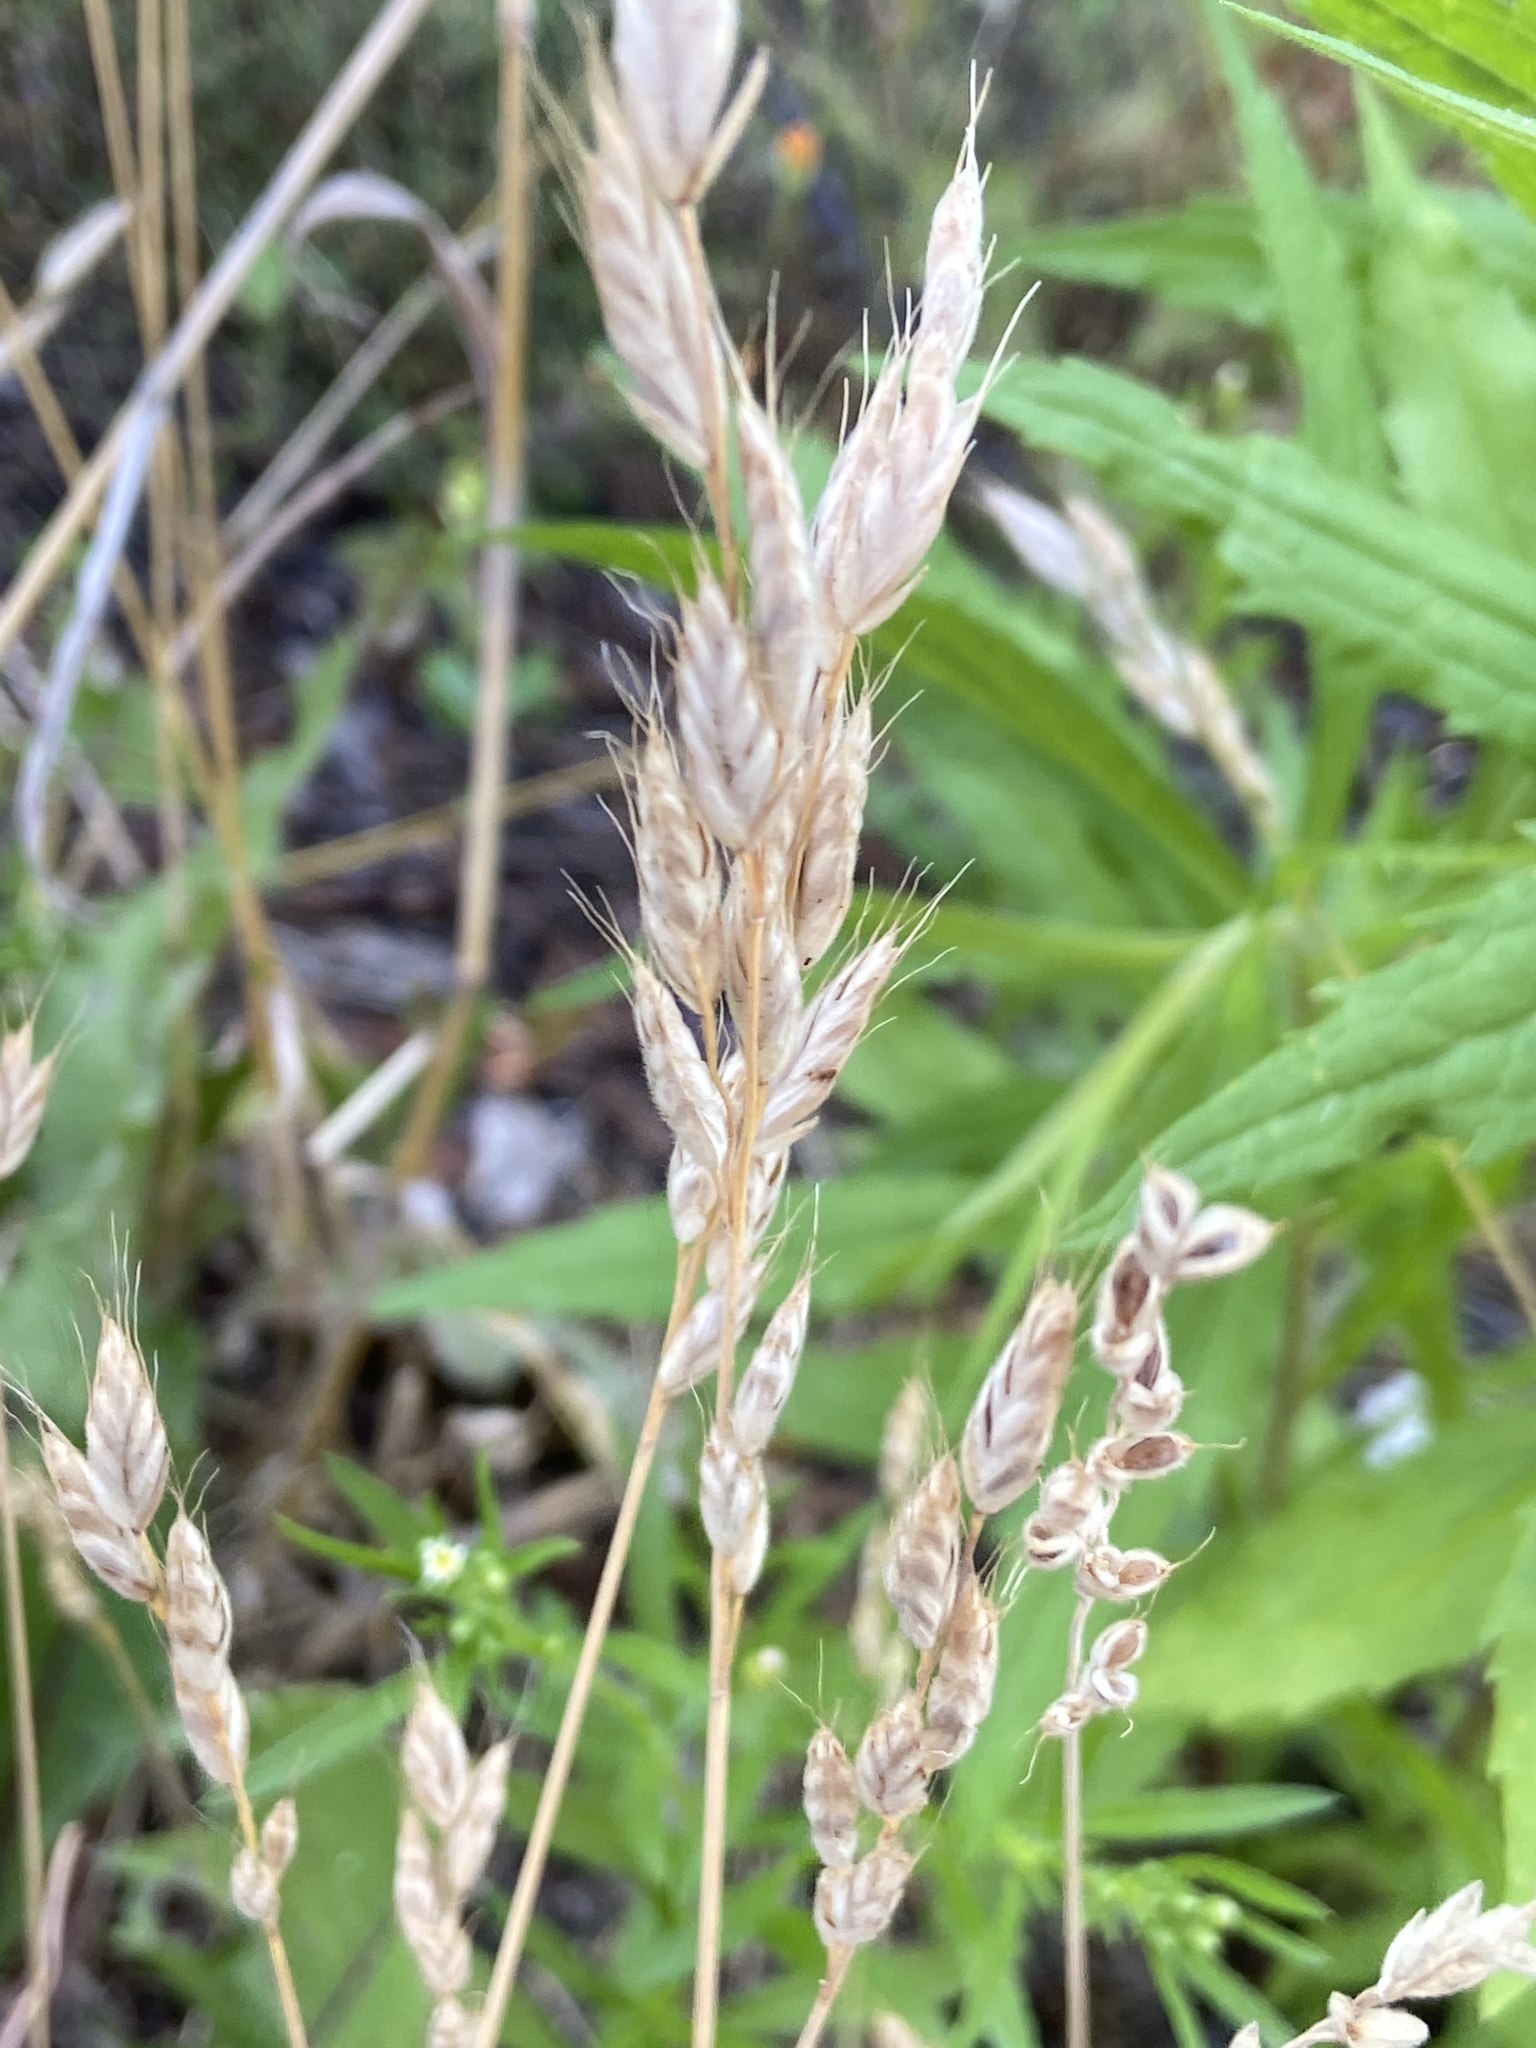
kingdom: Plantae
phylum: Tracheophyta
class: Liliopsida
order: Poales
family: Poaceae
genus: Bromus
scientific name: Bromus hordeaceus
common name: Soft brome
